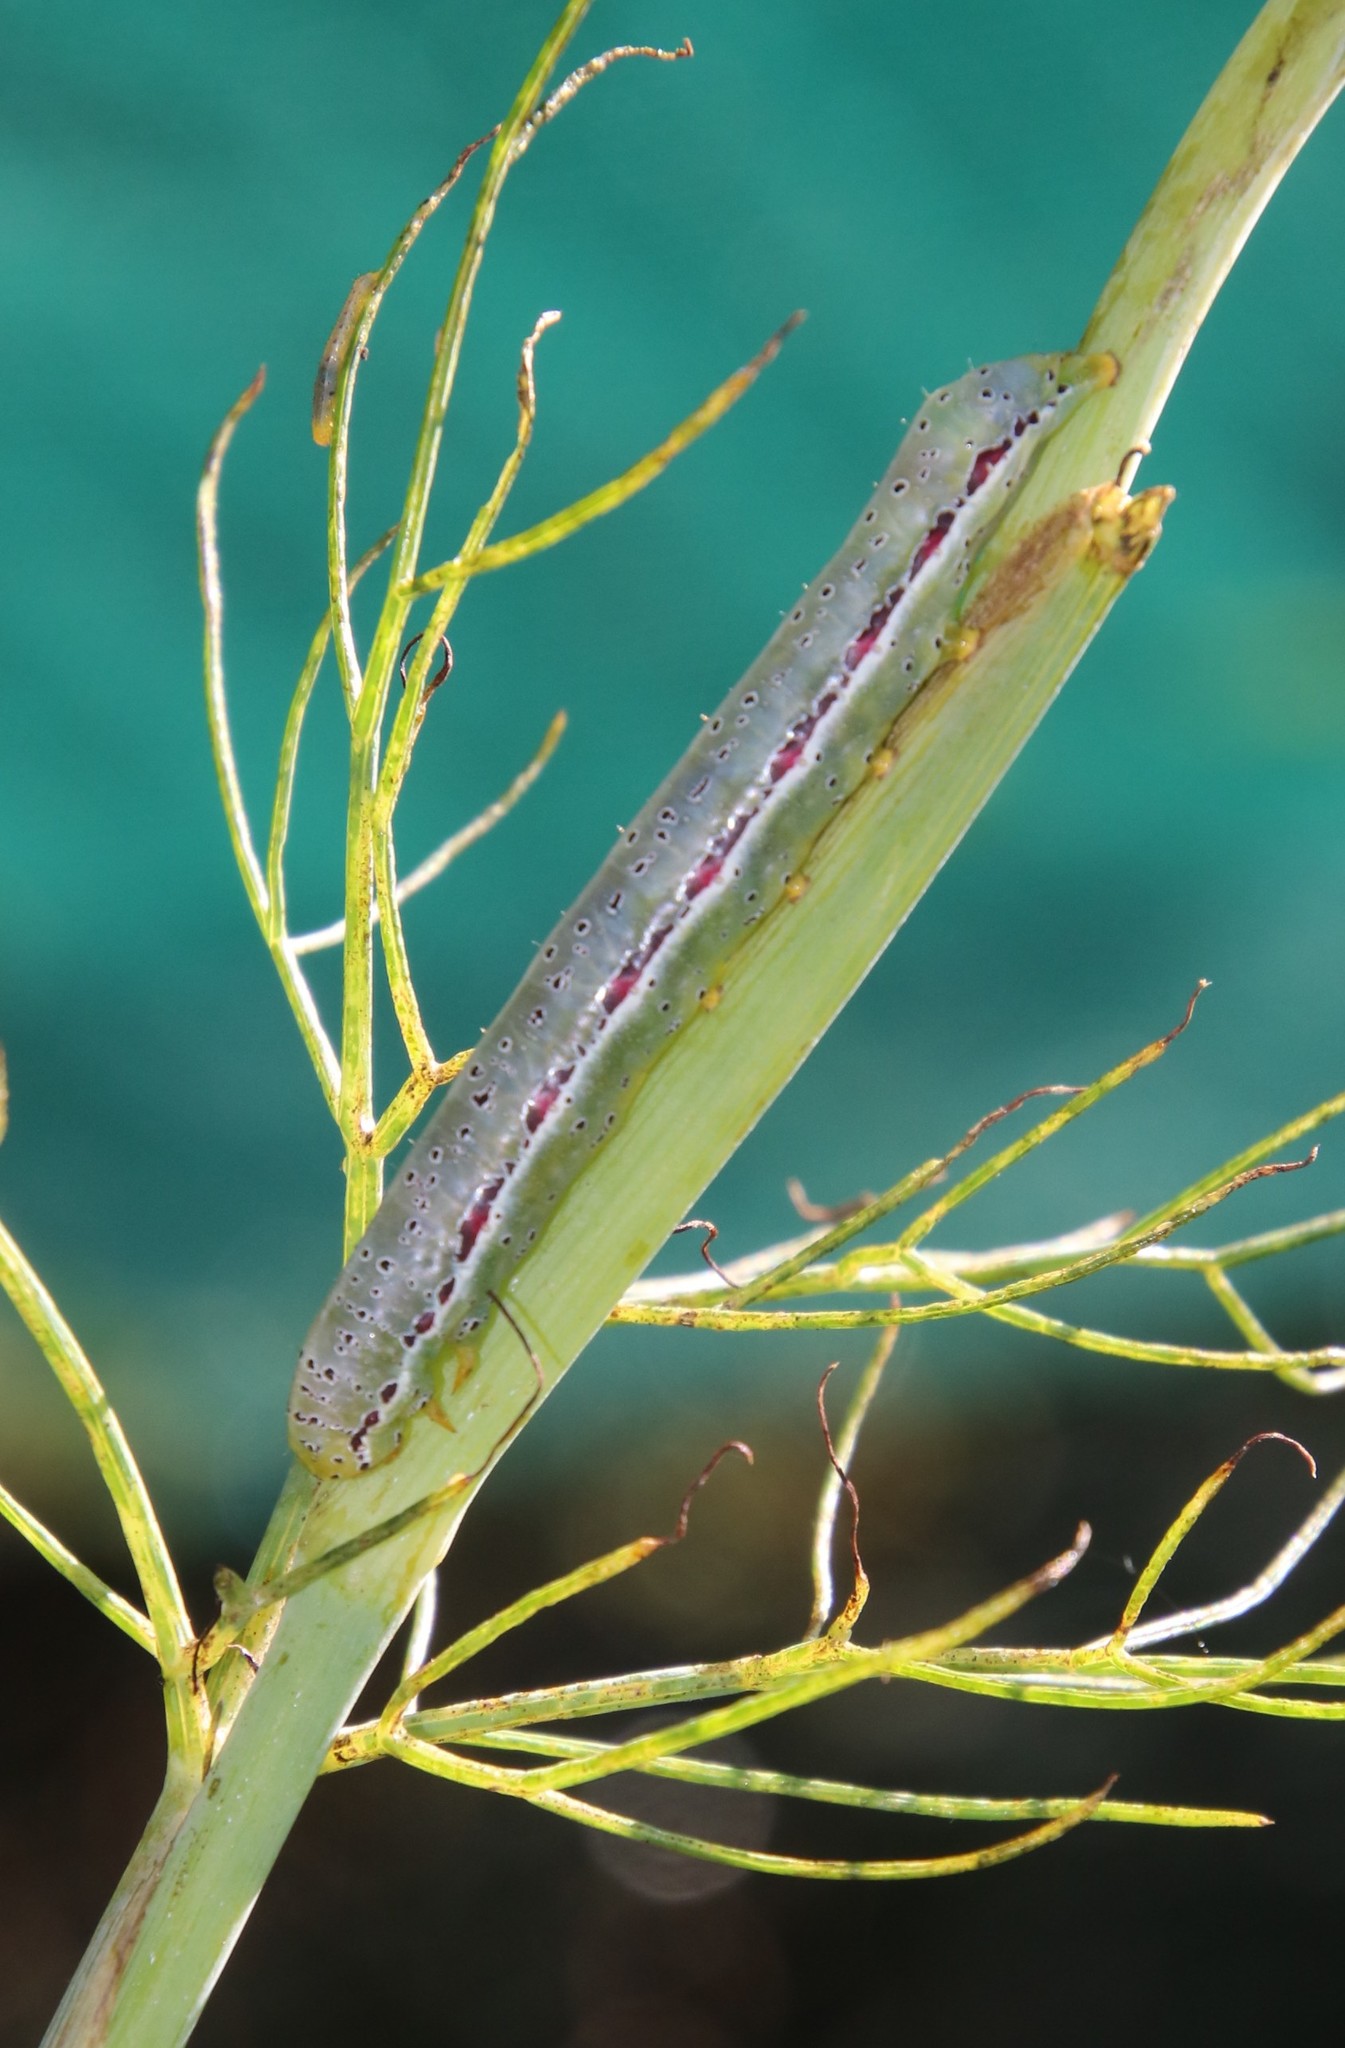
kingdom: Plantae
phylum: Tracheophyta
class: Magnoliopsida
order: Apiales
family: Apiaceae
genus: Foeniculum
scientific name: Foeniculum vulgare
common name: Fennel
